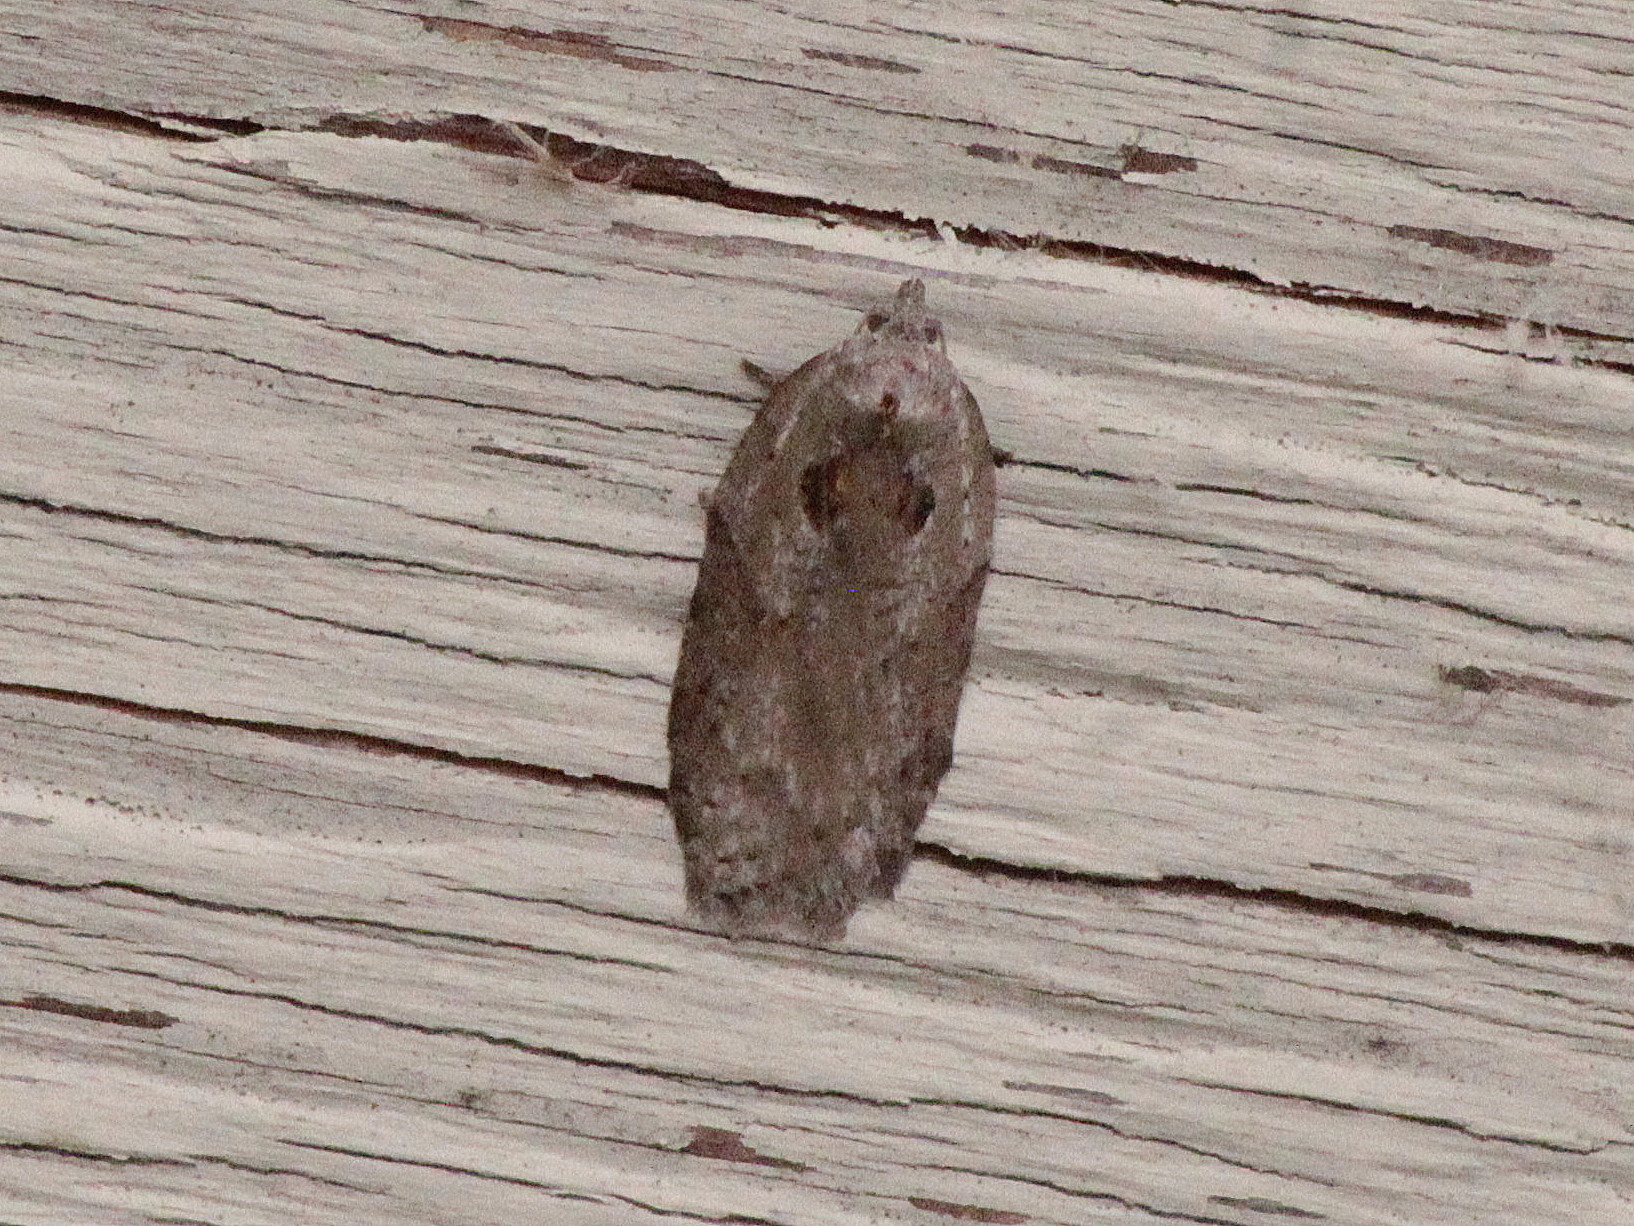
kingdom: Animalia
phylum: Arthropoda
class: Insecta
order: Lepidoptera
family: Tortricidae
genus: Acleris
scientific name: Acleris maculidorsana
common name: Stained-back leafroller moth
